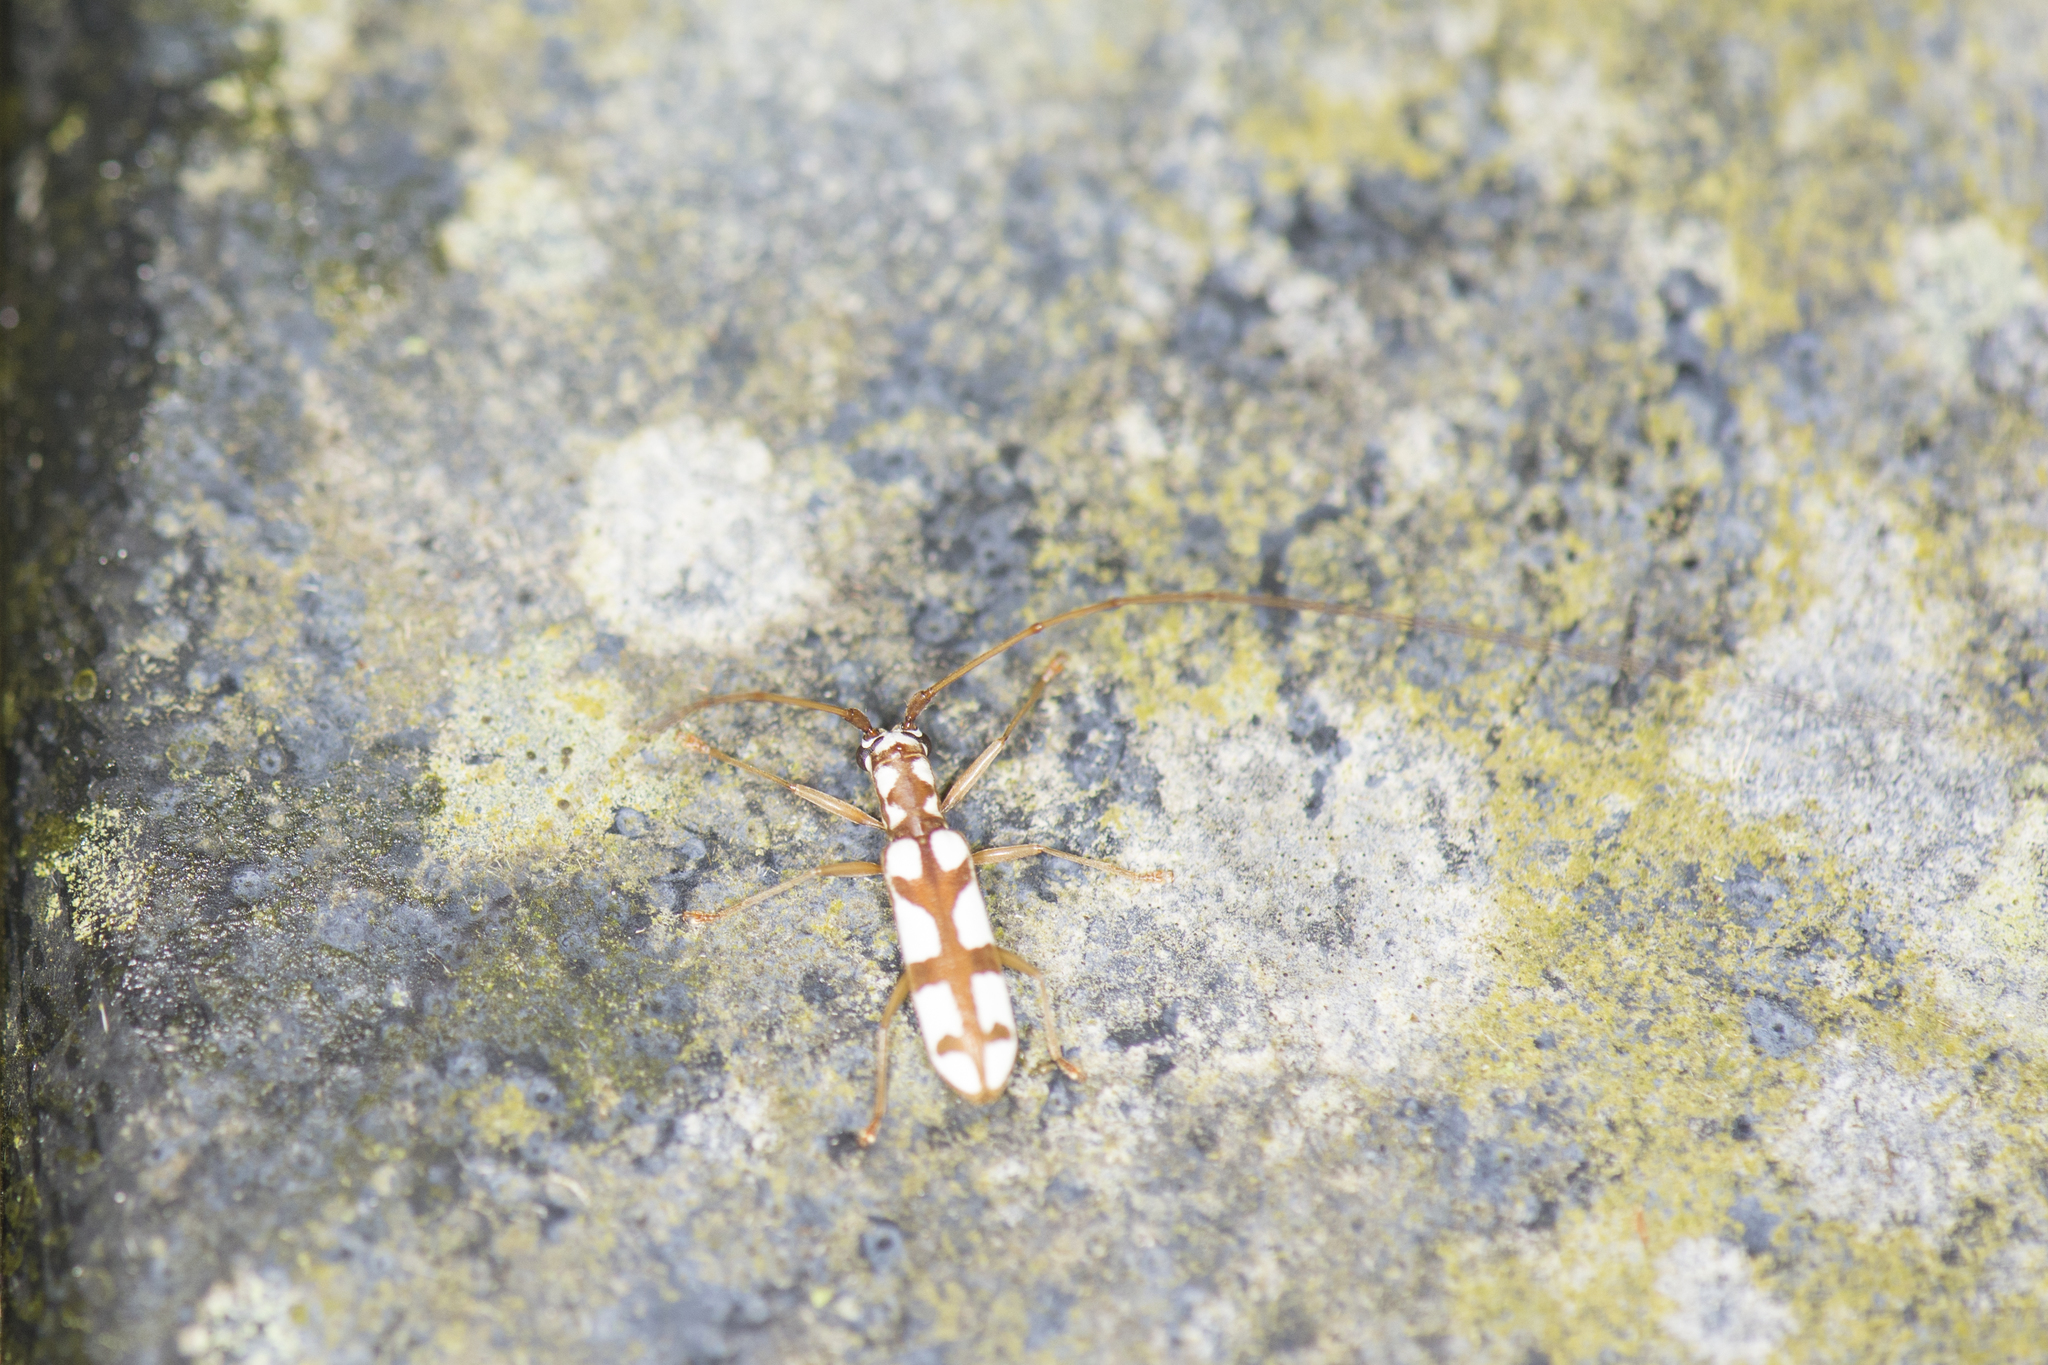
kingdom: Animalia
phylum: Arthropoda
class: Insecta
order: Coleoptera
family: Cerambycidae
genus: Olenecamptus
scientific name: Olenecamptus formosanus
